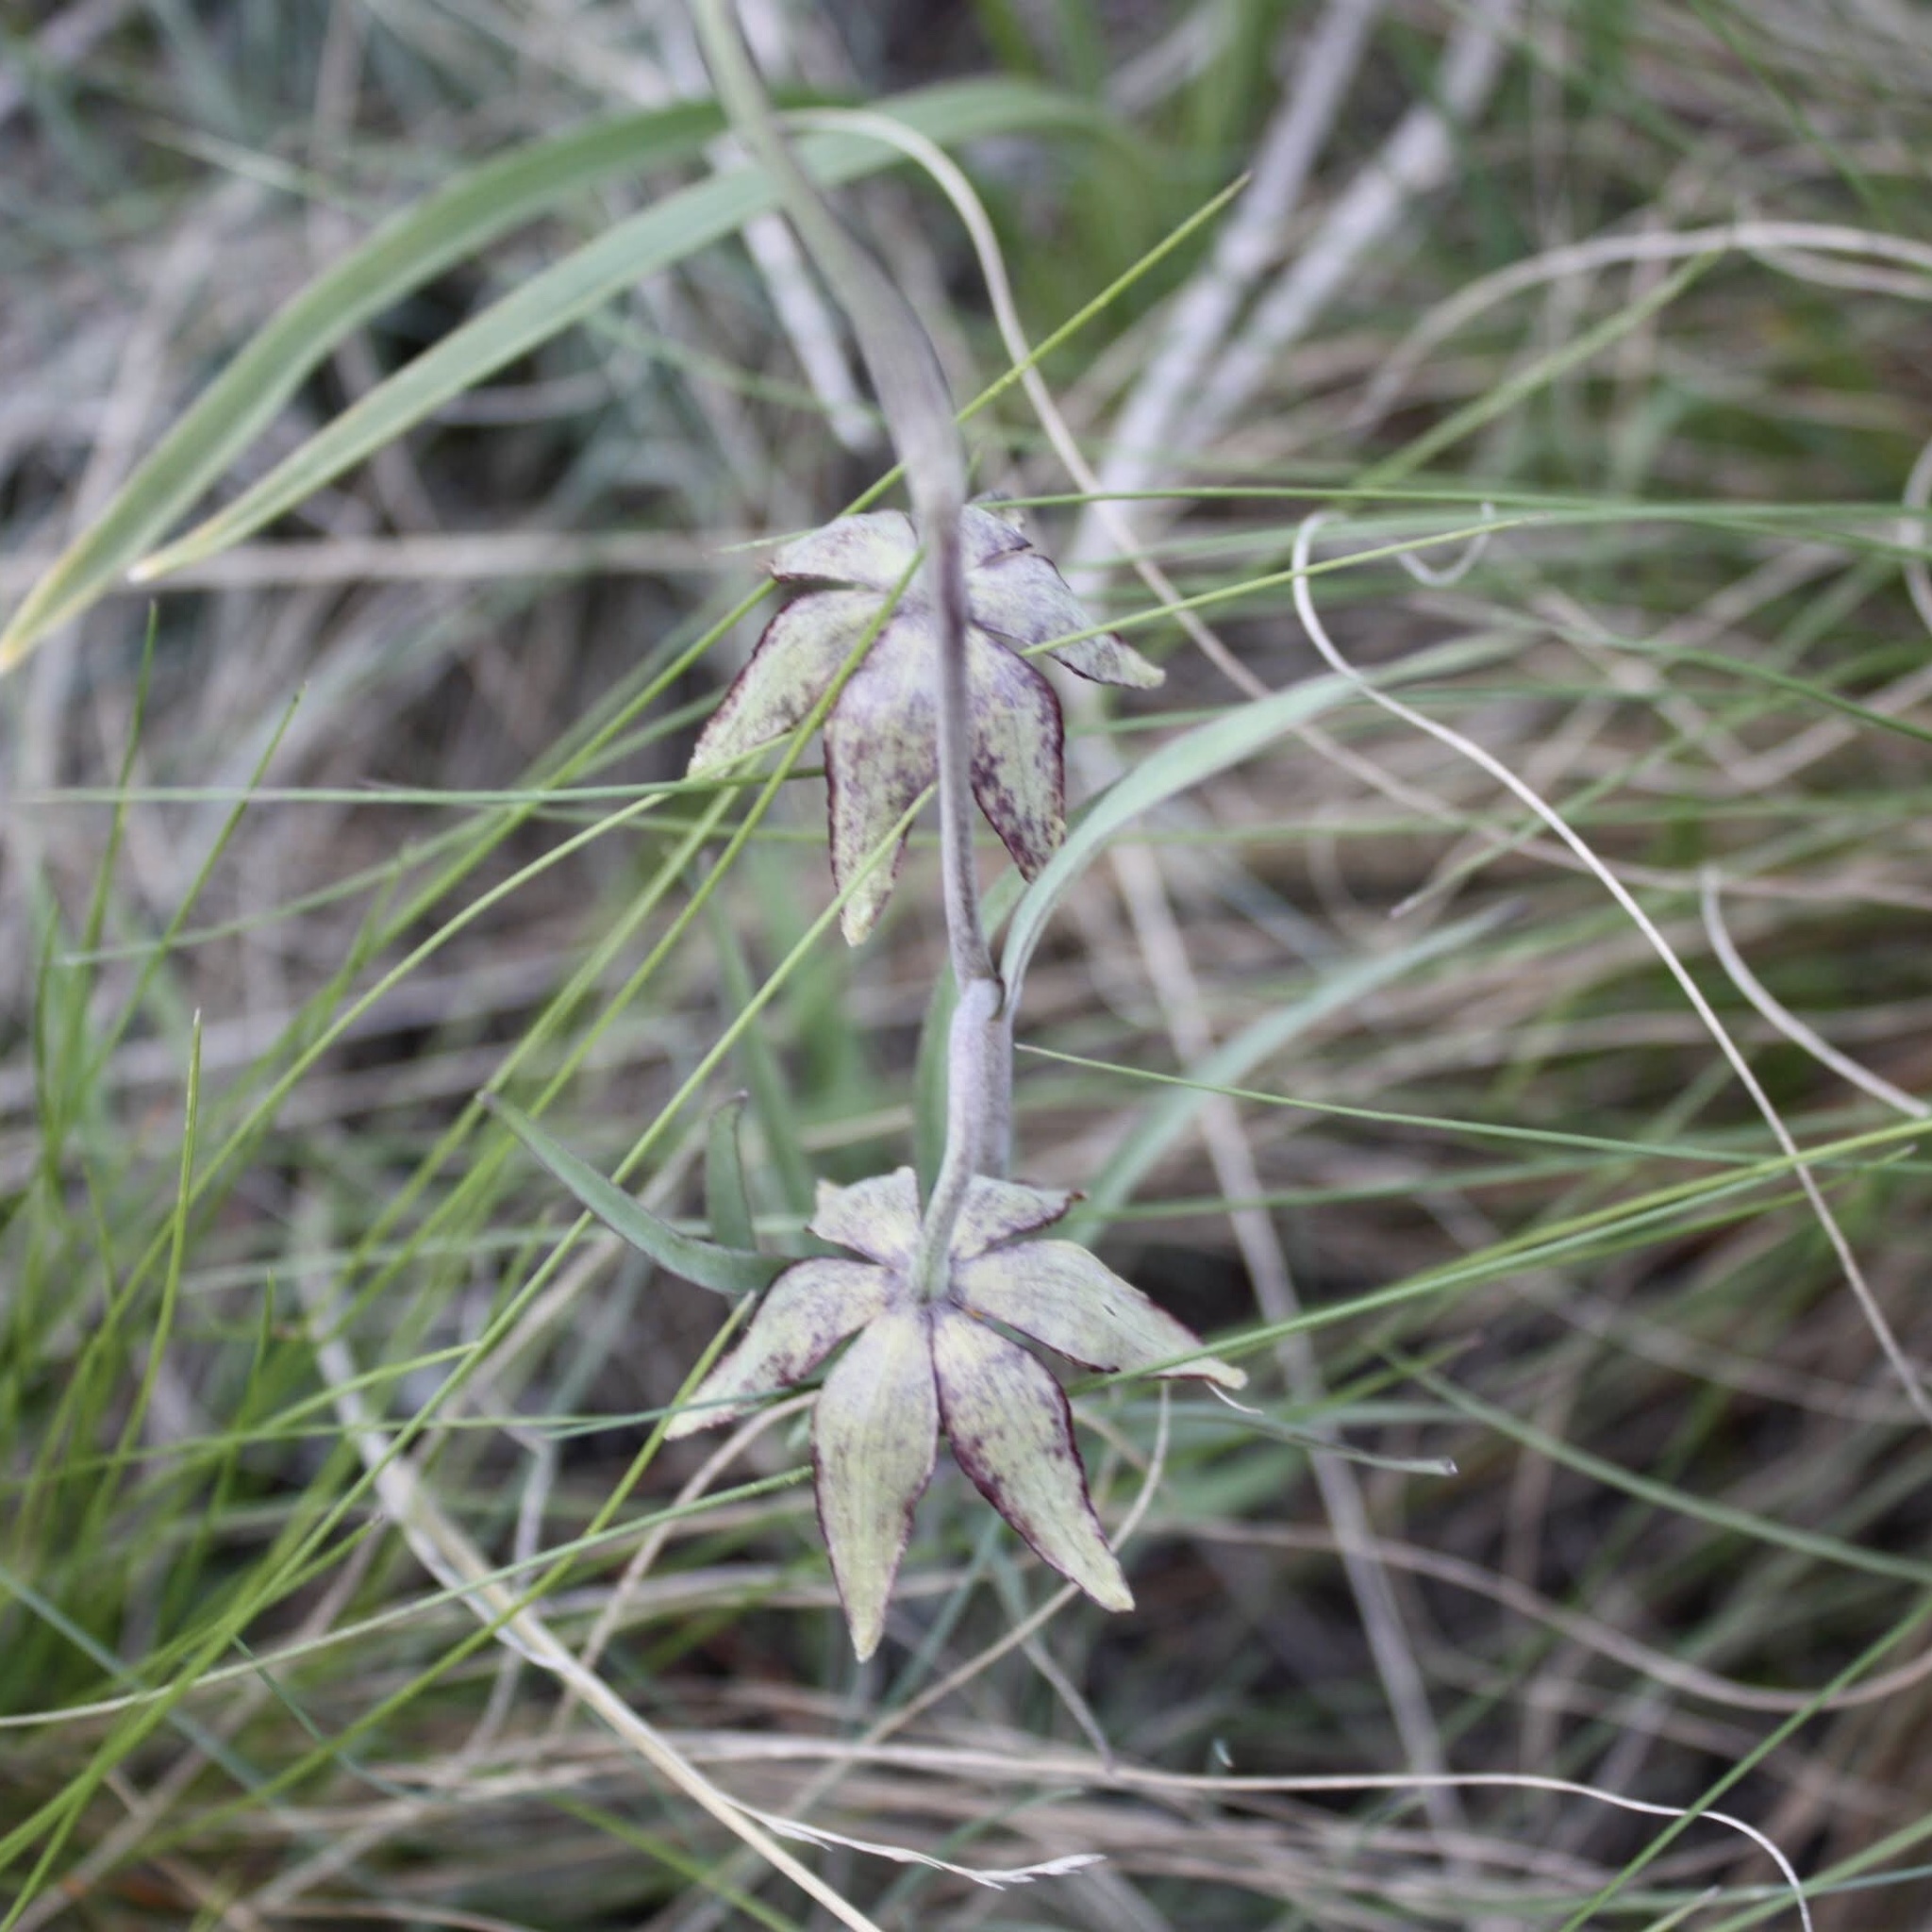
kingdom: Plantae
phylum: Tracheophyta
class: Liliopsida
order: Liliales
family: Liliaceae
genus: Fritillaria
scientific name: Fritillaria atropurpurea
